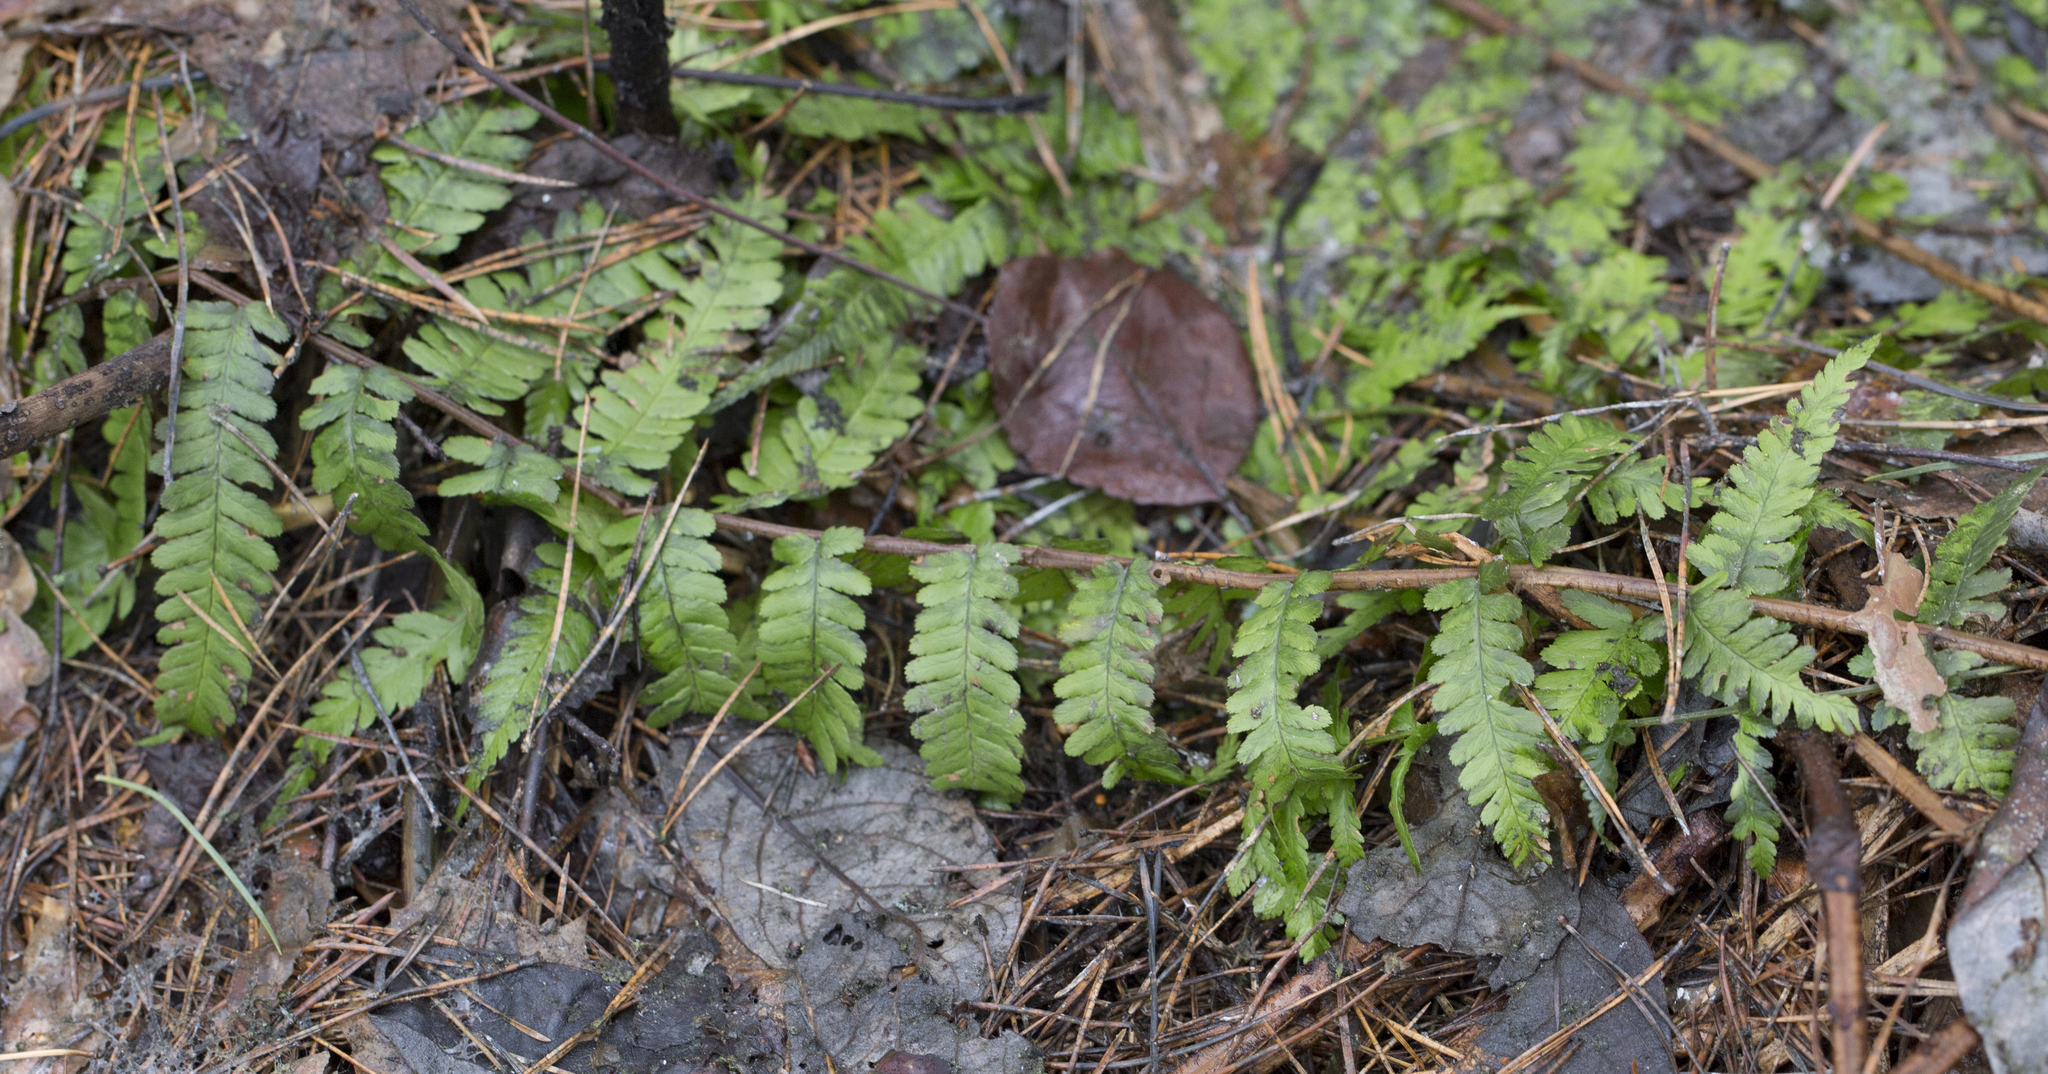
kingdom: Plantae
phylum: Tracheophyta
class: Polypodiopsida
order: Polypodiales
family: Dryopteridaceae
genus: Dryopteris
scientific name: Dryopteris filix-mas
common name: Male fern
